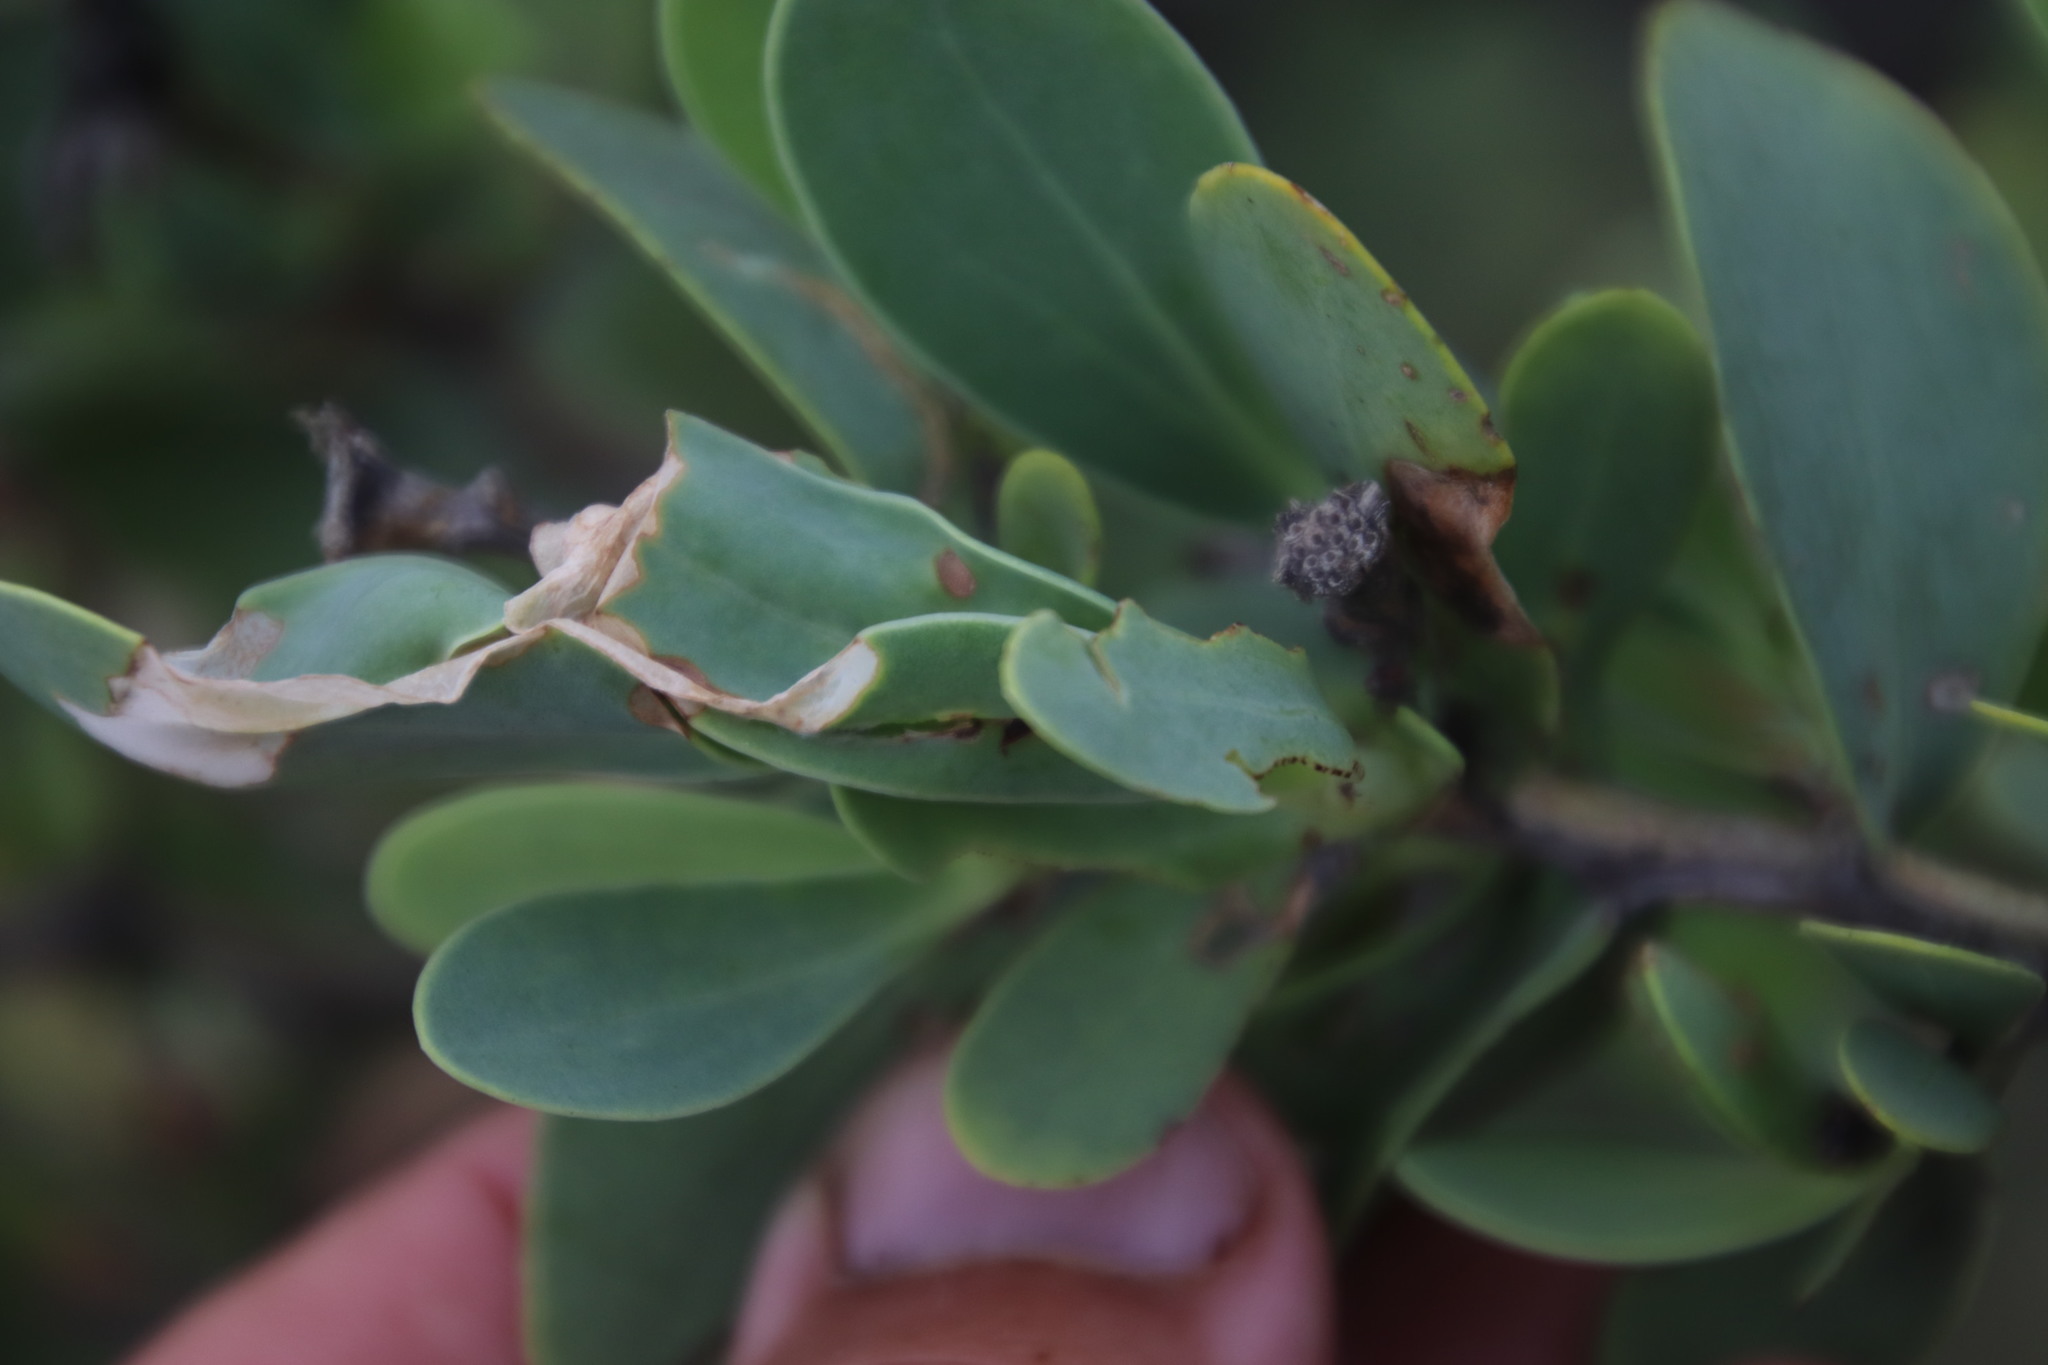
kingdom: Plantae
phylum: Tracheophyta
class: Magnoliopsida
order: Asterales
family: Asteraceae
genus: Lopholaena
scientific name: Lopholaena coriifolia
